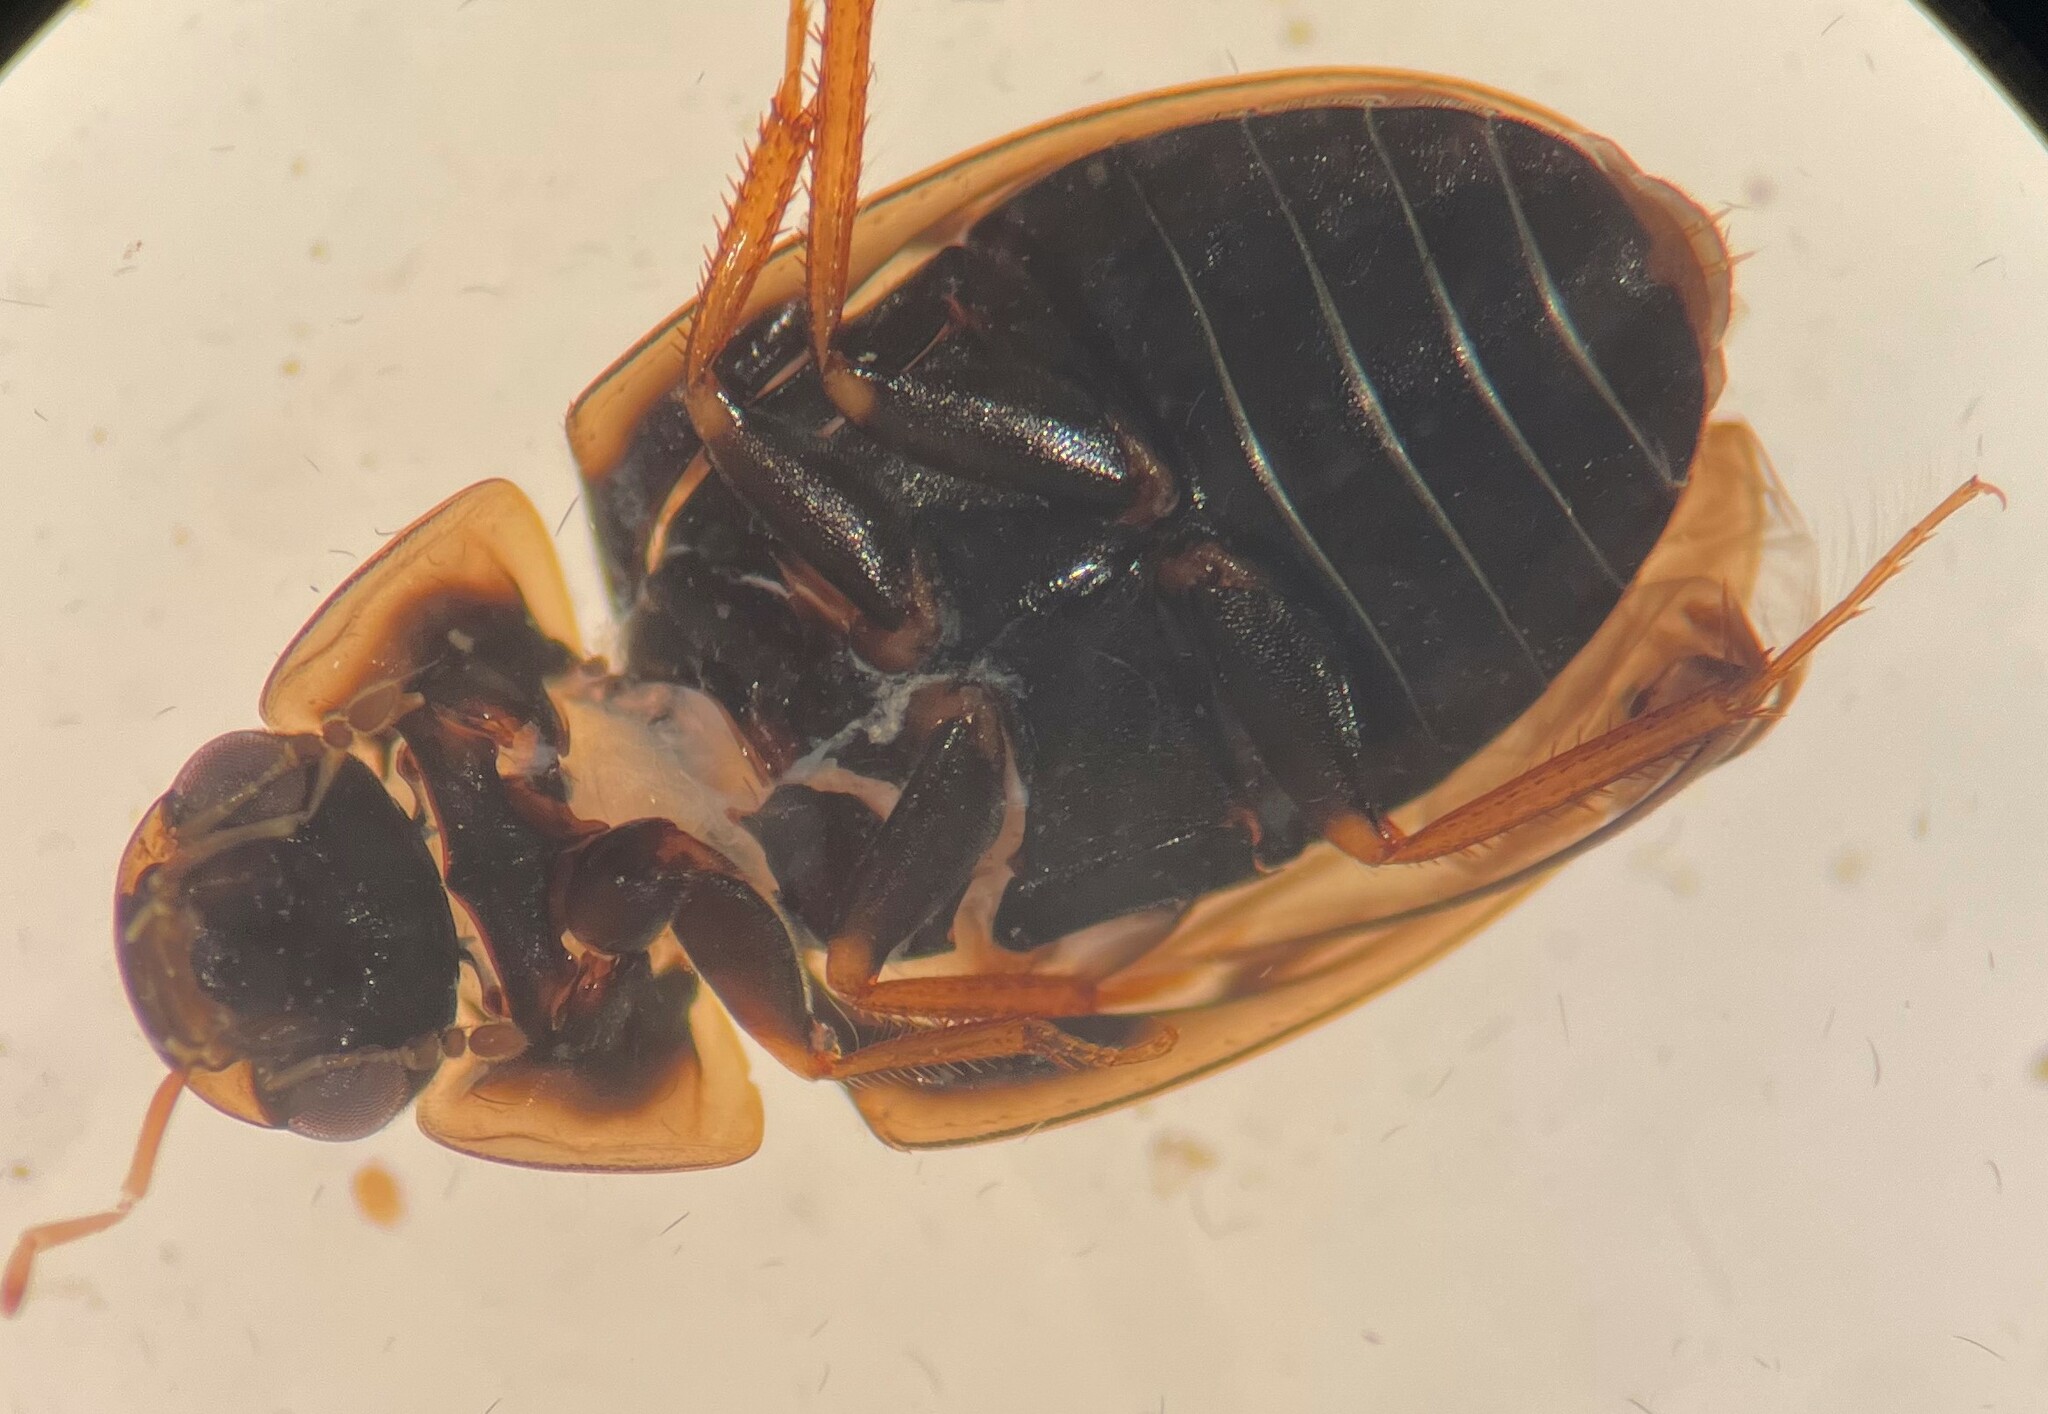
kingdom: Animalia
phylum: Arthropoda
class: Insecta
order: Coleoptera
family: Hydrophilidae
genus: Enochrus
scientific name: Enochrus pygmaeus
